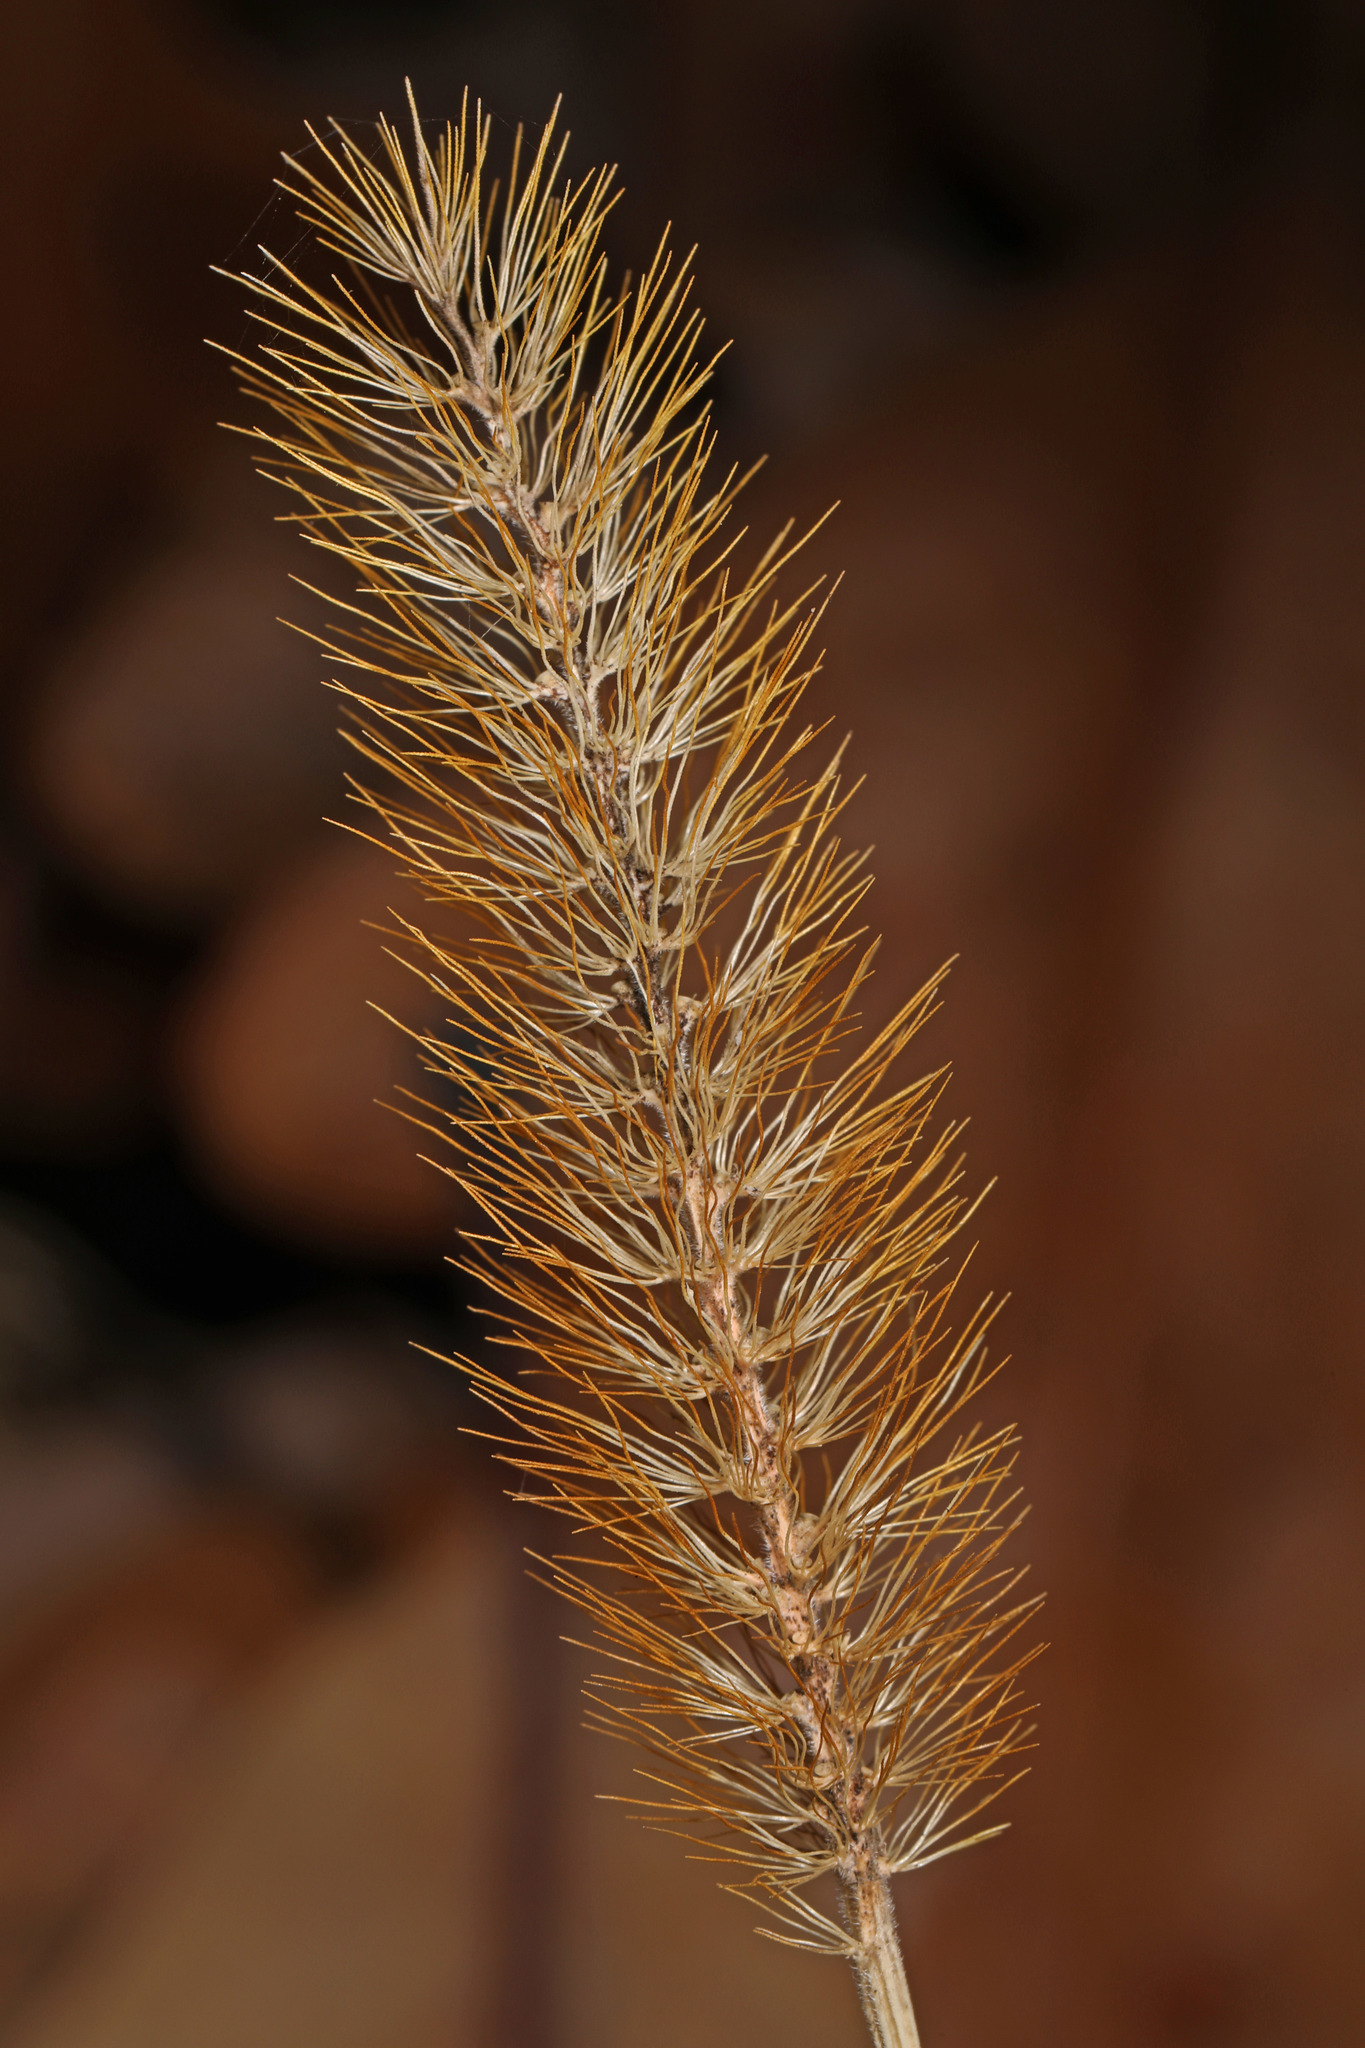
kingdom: Plantae
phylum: Tracheophyta
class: Liliopsida
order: Poales
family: Poaceae
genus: Setaria
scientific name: Setaria pumila
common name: Yellow bristle-grass
